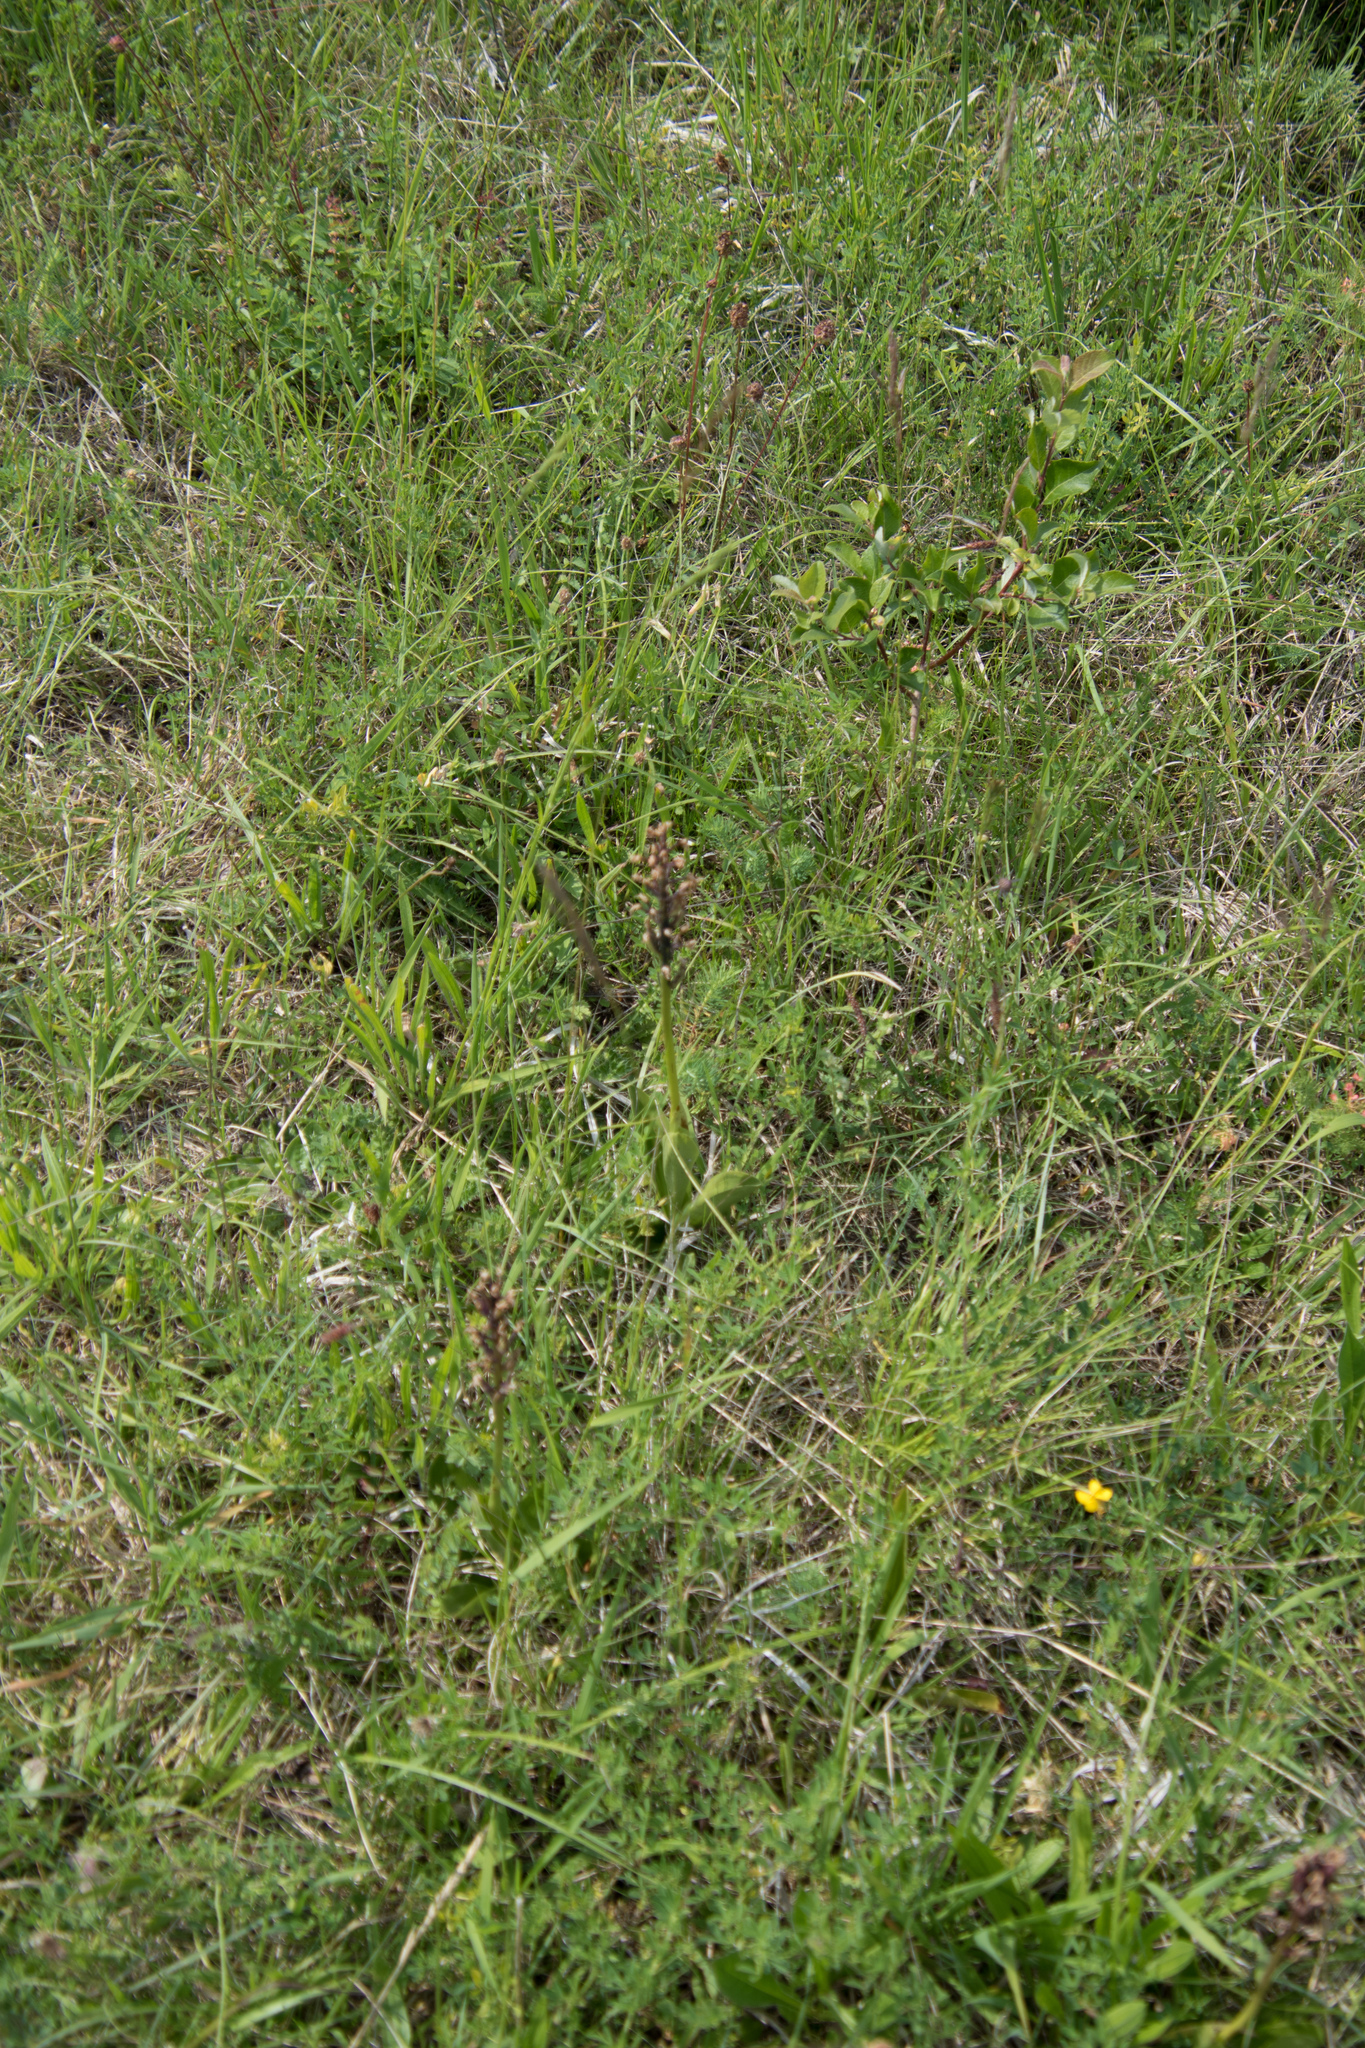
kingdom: Plantae
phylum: Tracheophyta
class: Liliopsida
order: Asparagales
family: Orchidaceae
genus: Orchis
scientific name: Orchis militaris
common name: Military orchid
